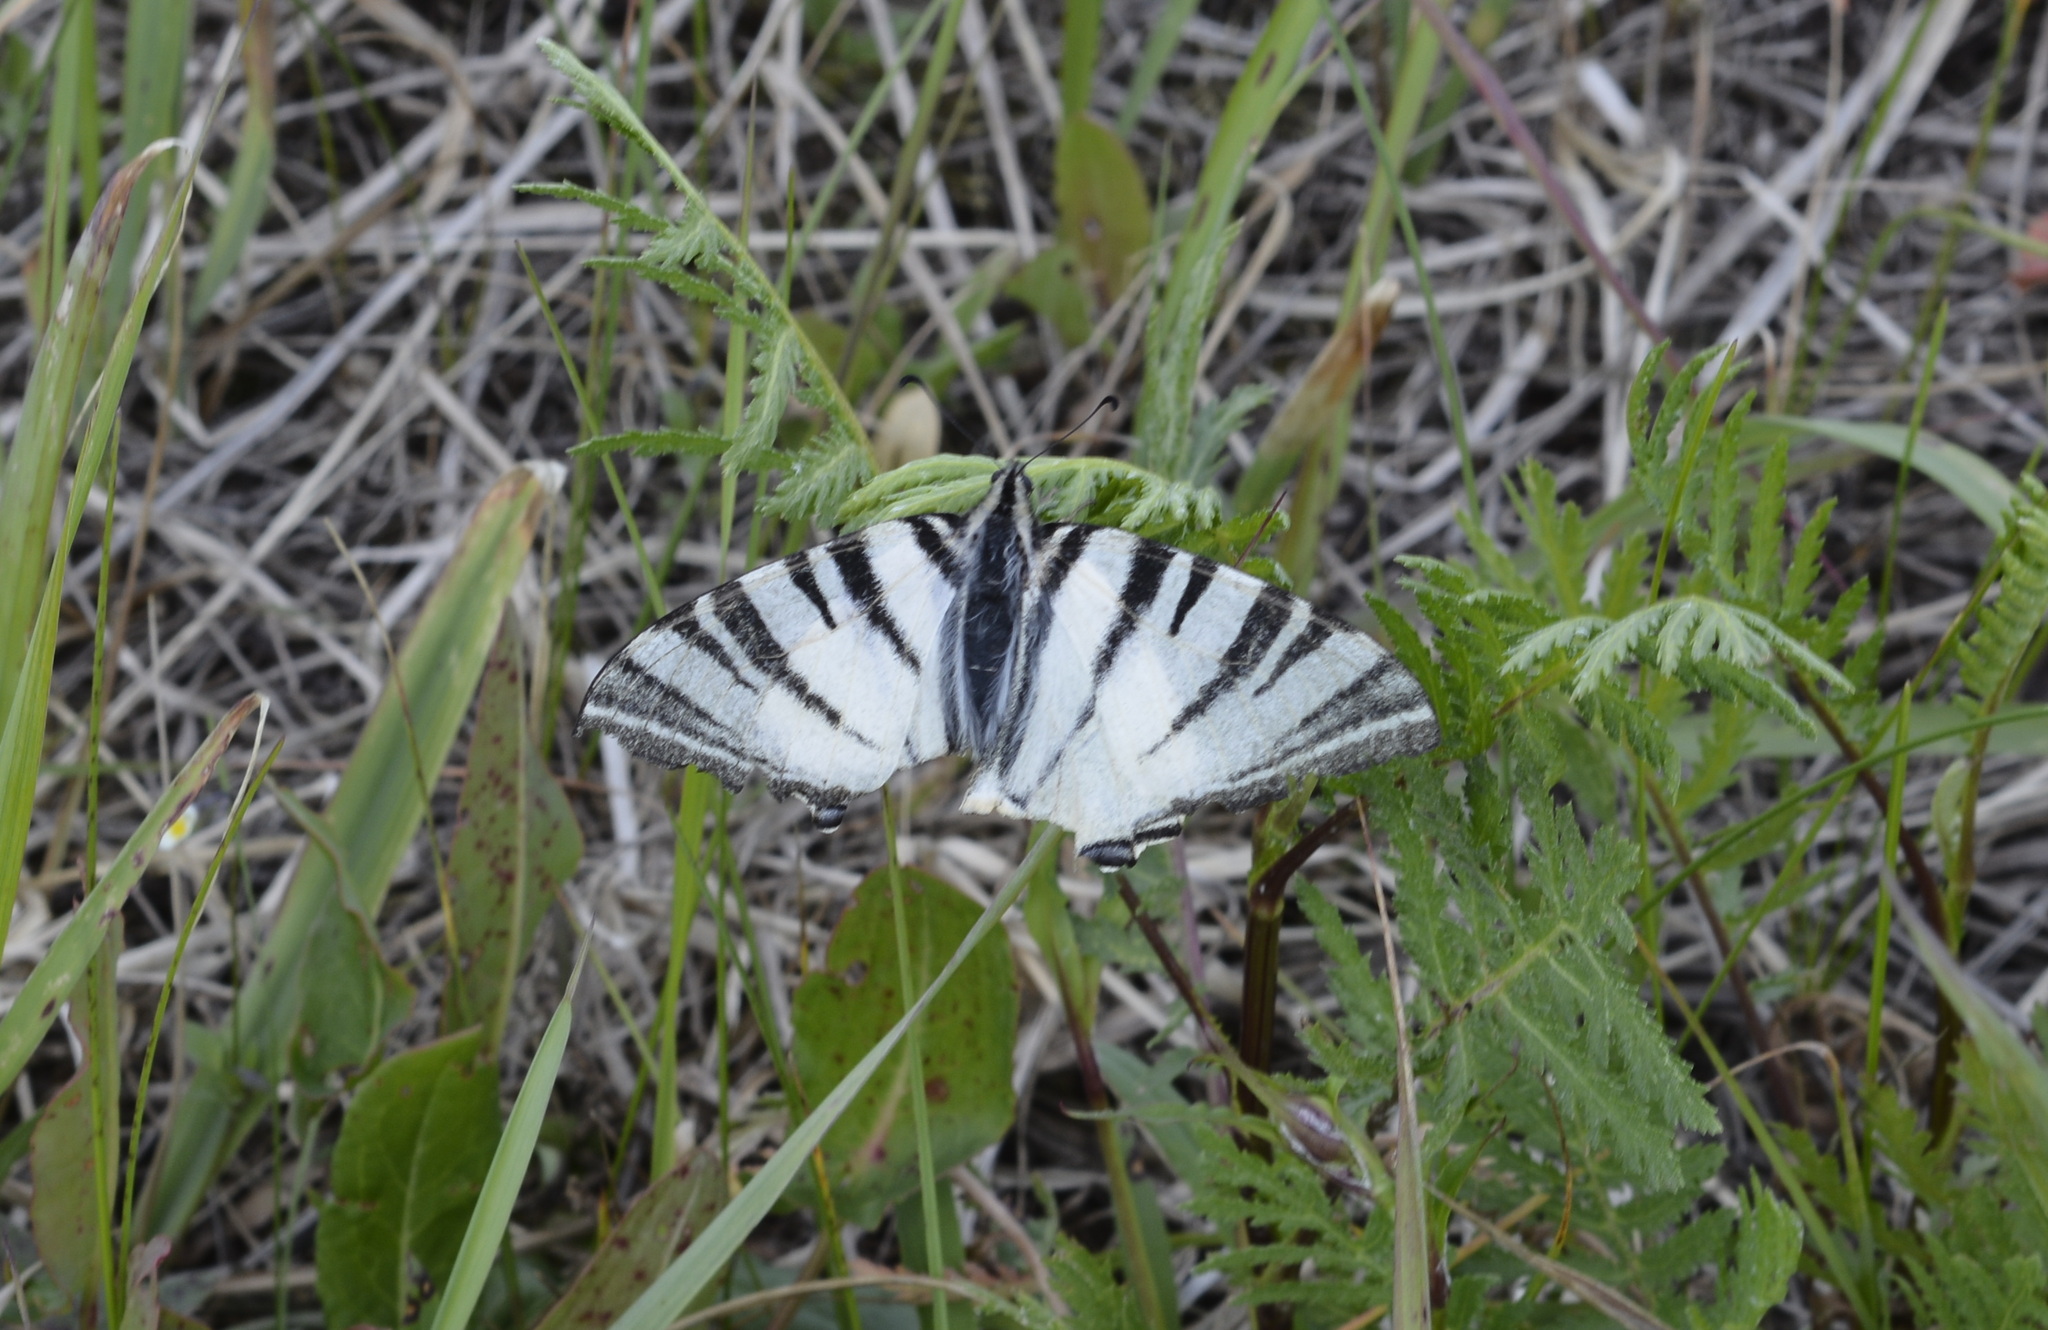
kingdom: Animalia
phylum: Arthropoda
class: Insecta
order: Lepidoptera
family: Papilionidae
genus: Iphiclides
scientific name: Iphiclides podalirius
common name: Scarce swallowtail
